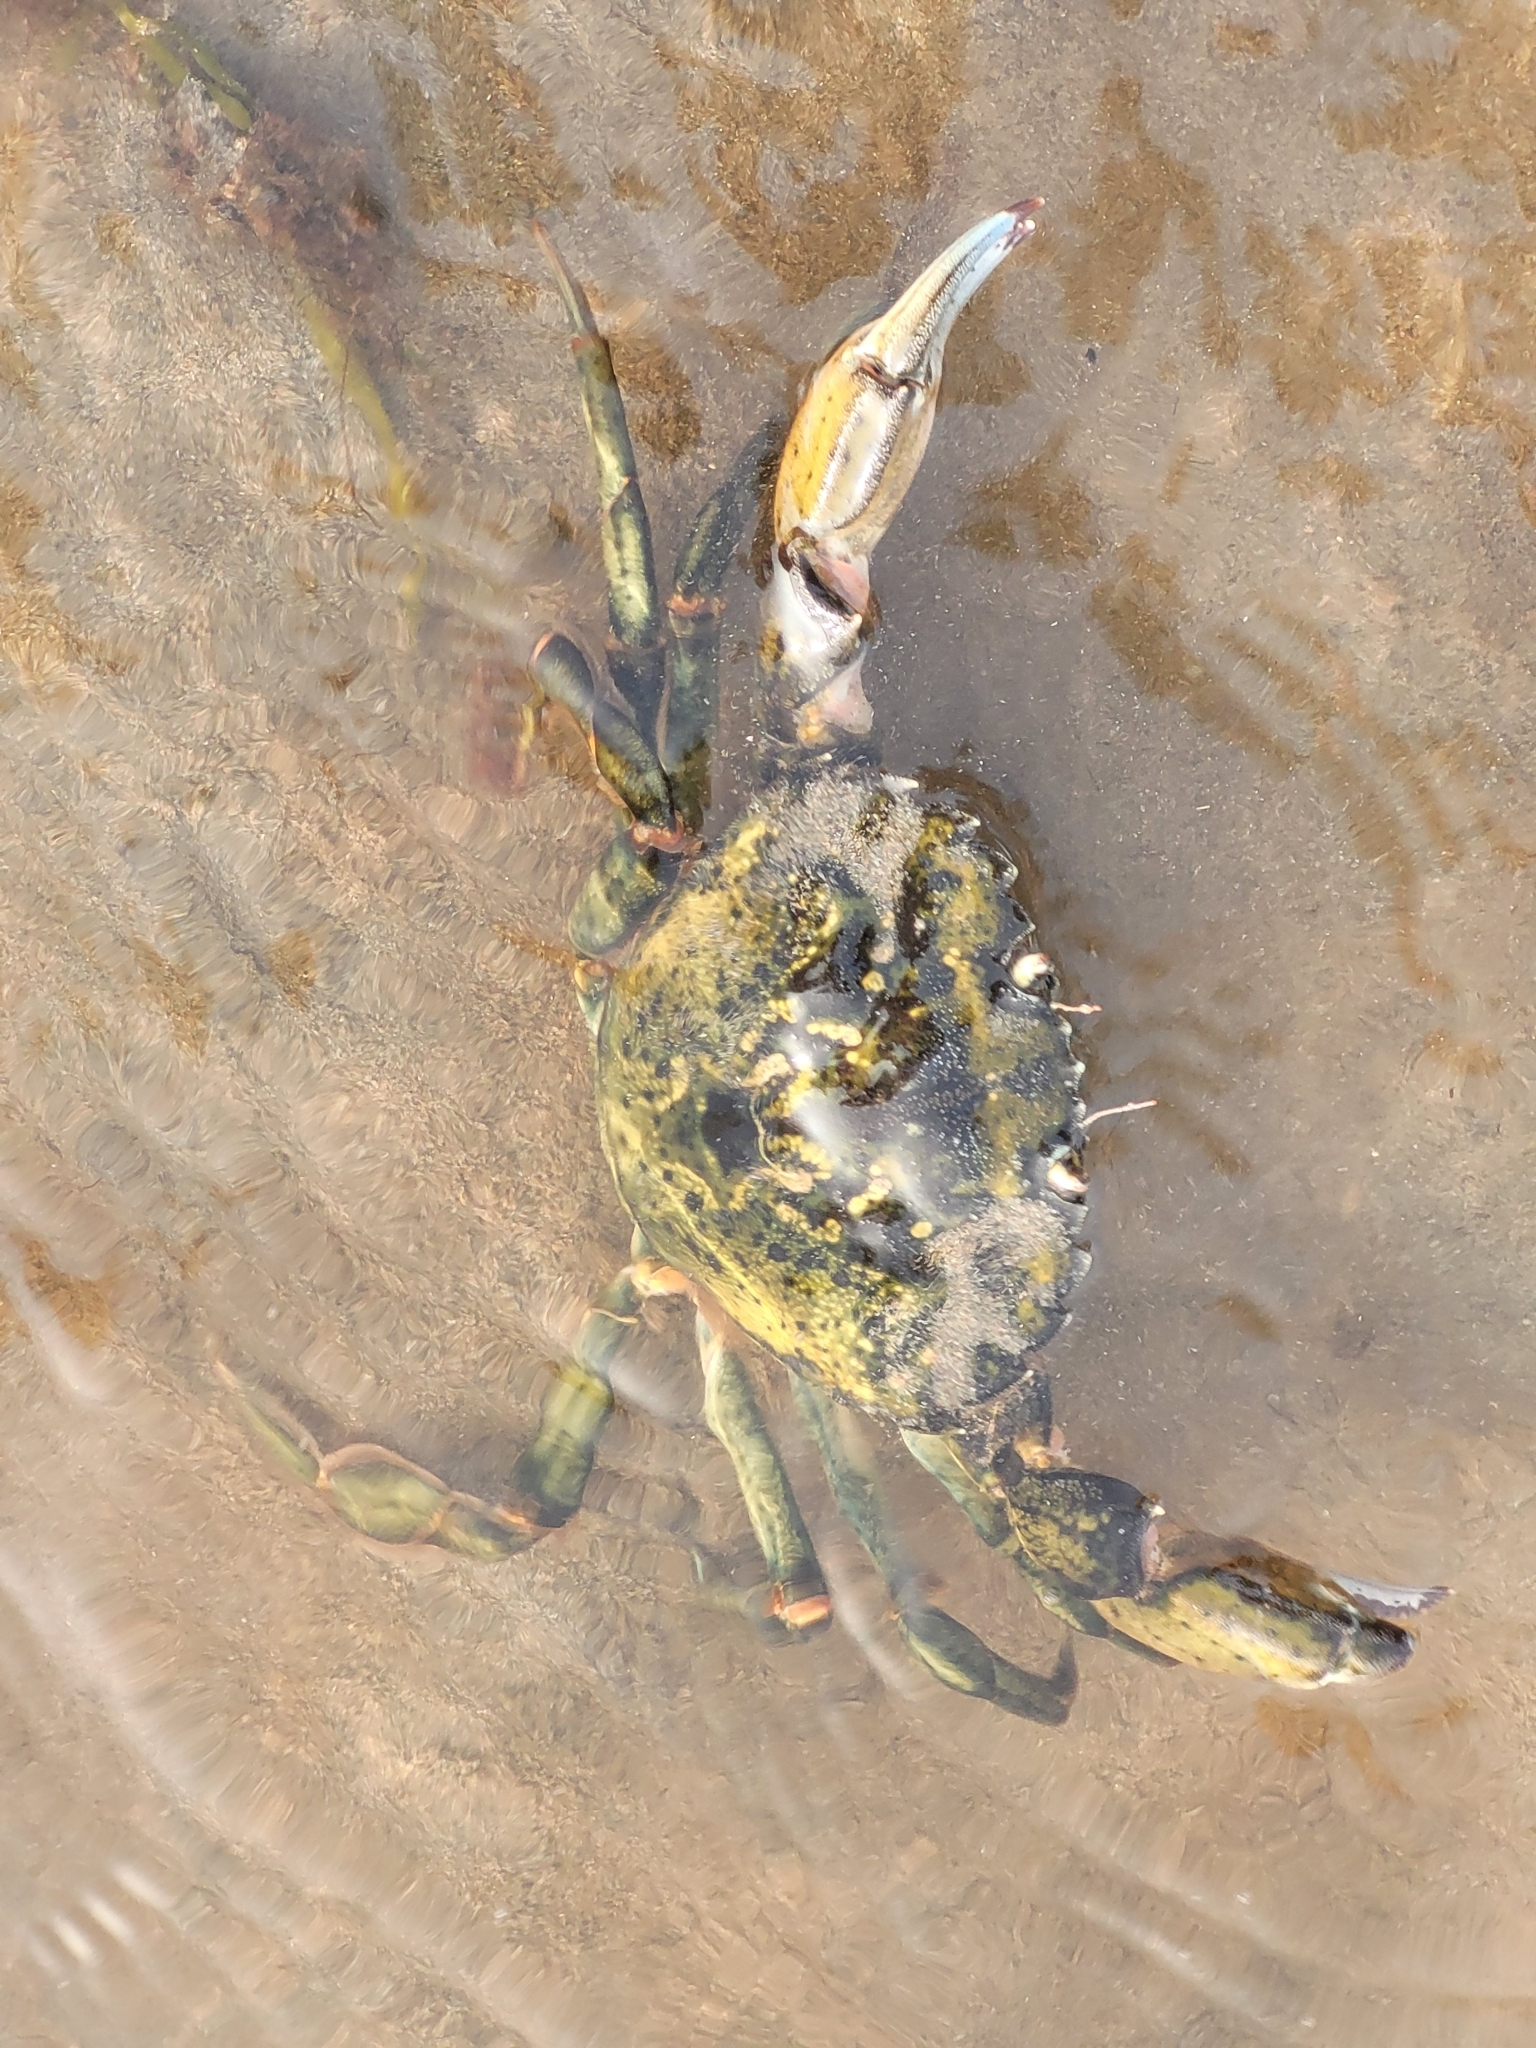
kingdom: Animalia
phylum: Arthropoda
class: Malacostraca
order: Decapoda
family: Carcinidae
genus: Carcinus
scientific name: Carcinus maenas
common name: European green crab
